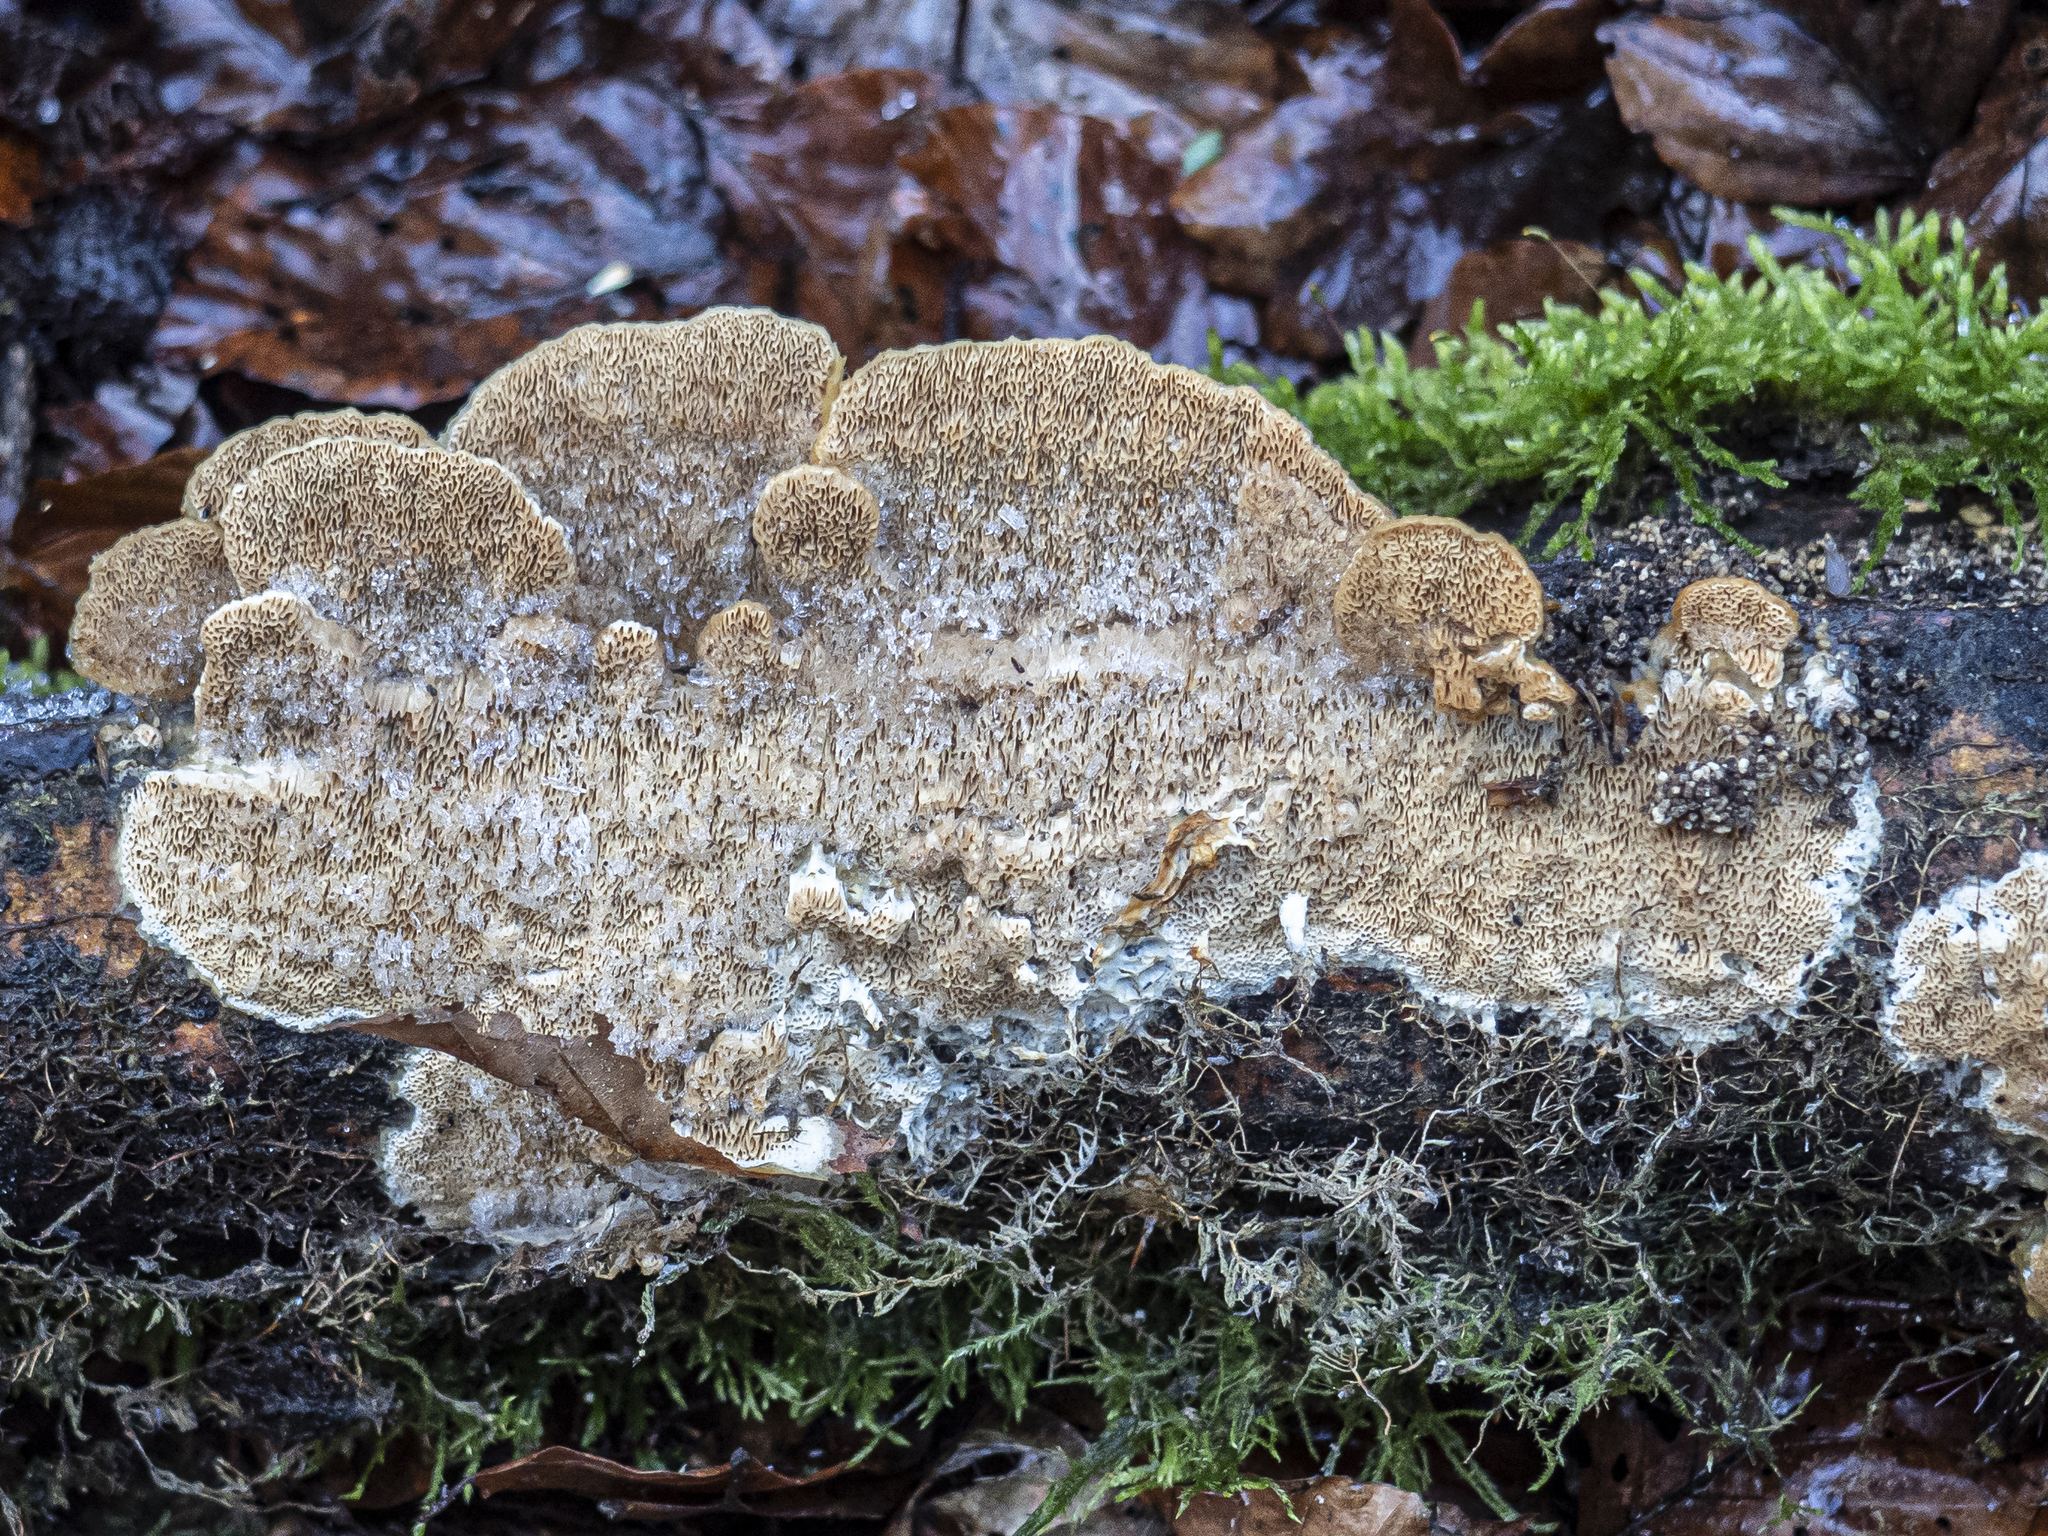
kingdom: Fungi
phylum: Basidiomycota
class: Agaricomycetes
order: Polyporales
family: Irpicaceae
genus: Trametopsis
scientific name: Trametopsis cervina
